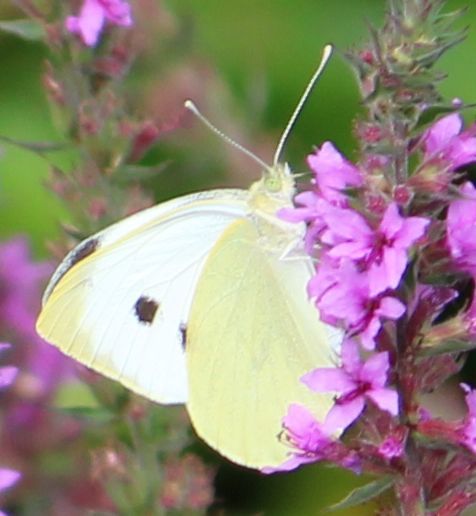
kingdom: Animalia
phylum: Arthropoda
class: Insecta
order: Lepidoptera
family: Pieridae
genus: Pieris
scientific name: Pieris brassicae
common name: Large white
